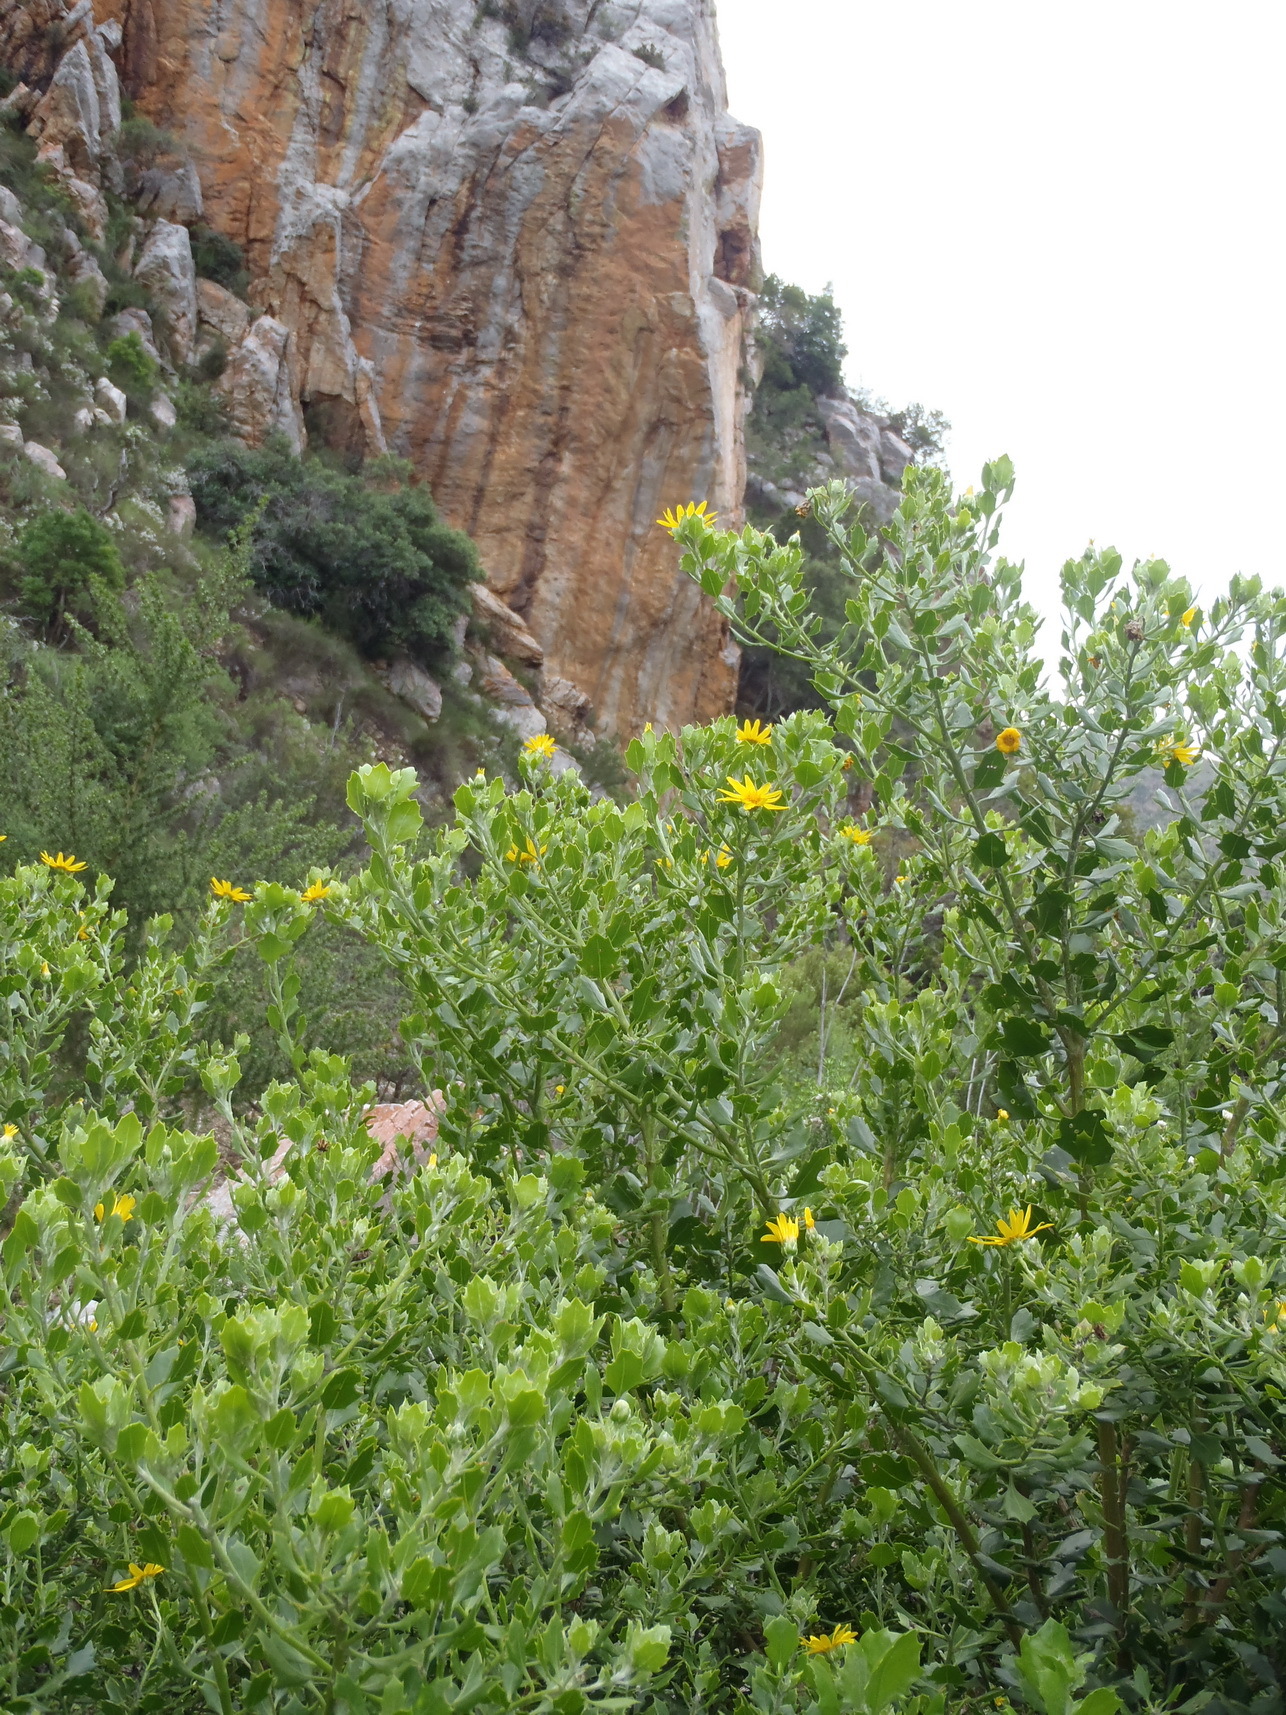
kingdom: Plantae
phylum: Tracheophyta
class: Magnoliopsida
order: Asterales
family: Asteraceae
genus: Osteospermum
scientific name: Osteospermum moniliferum
